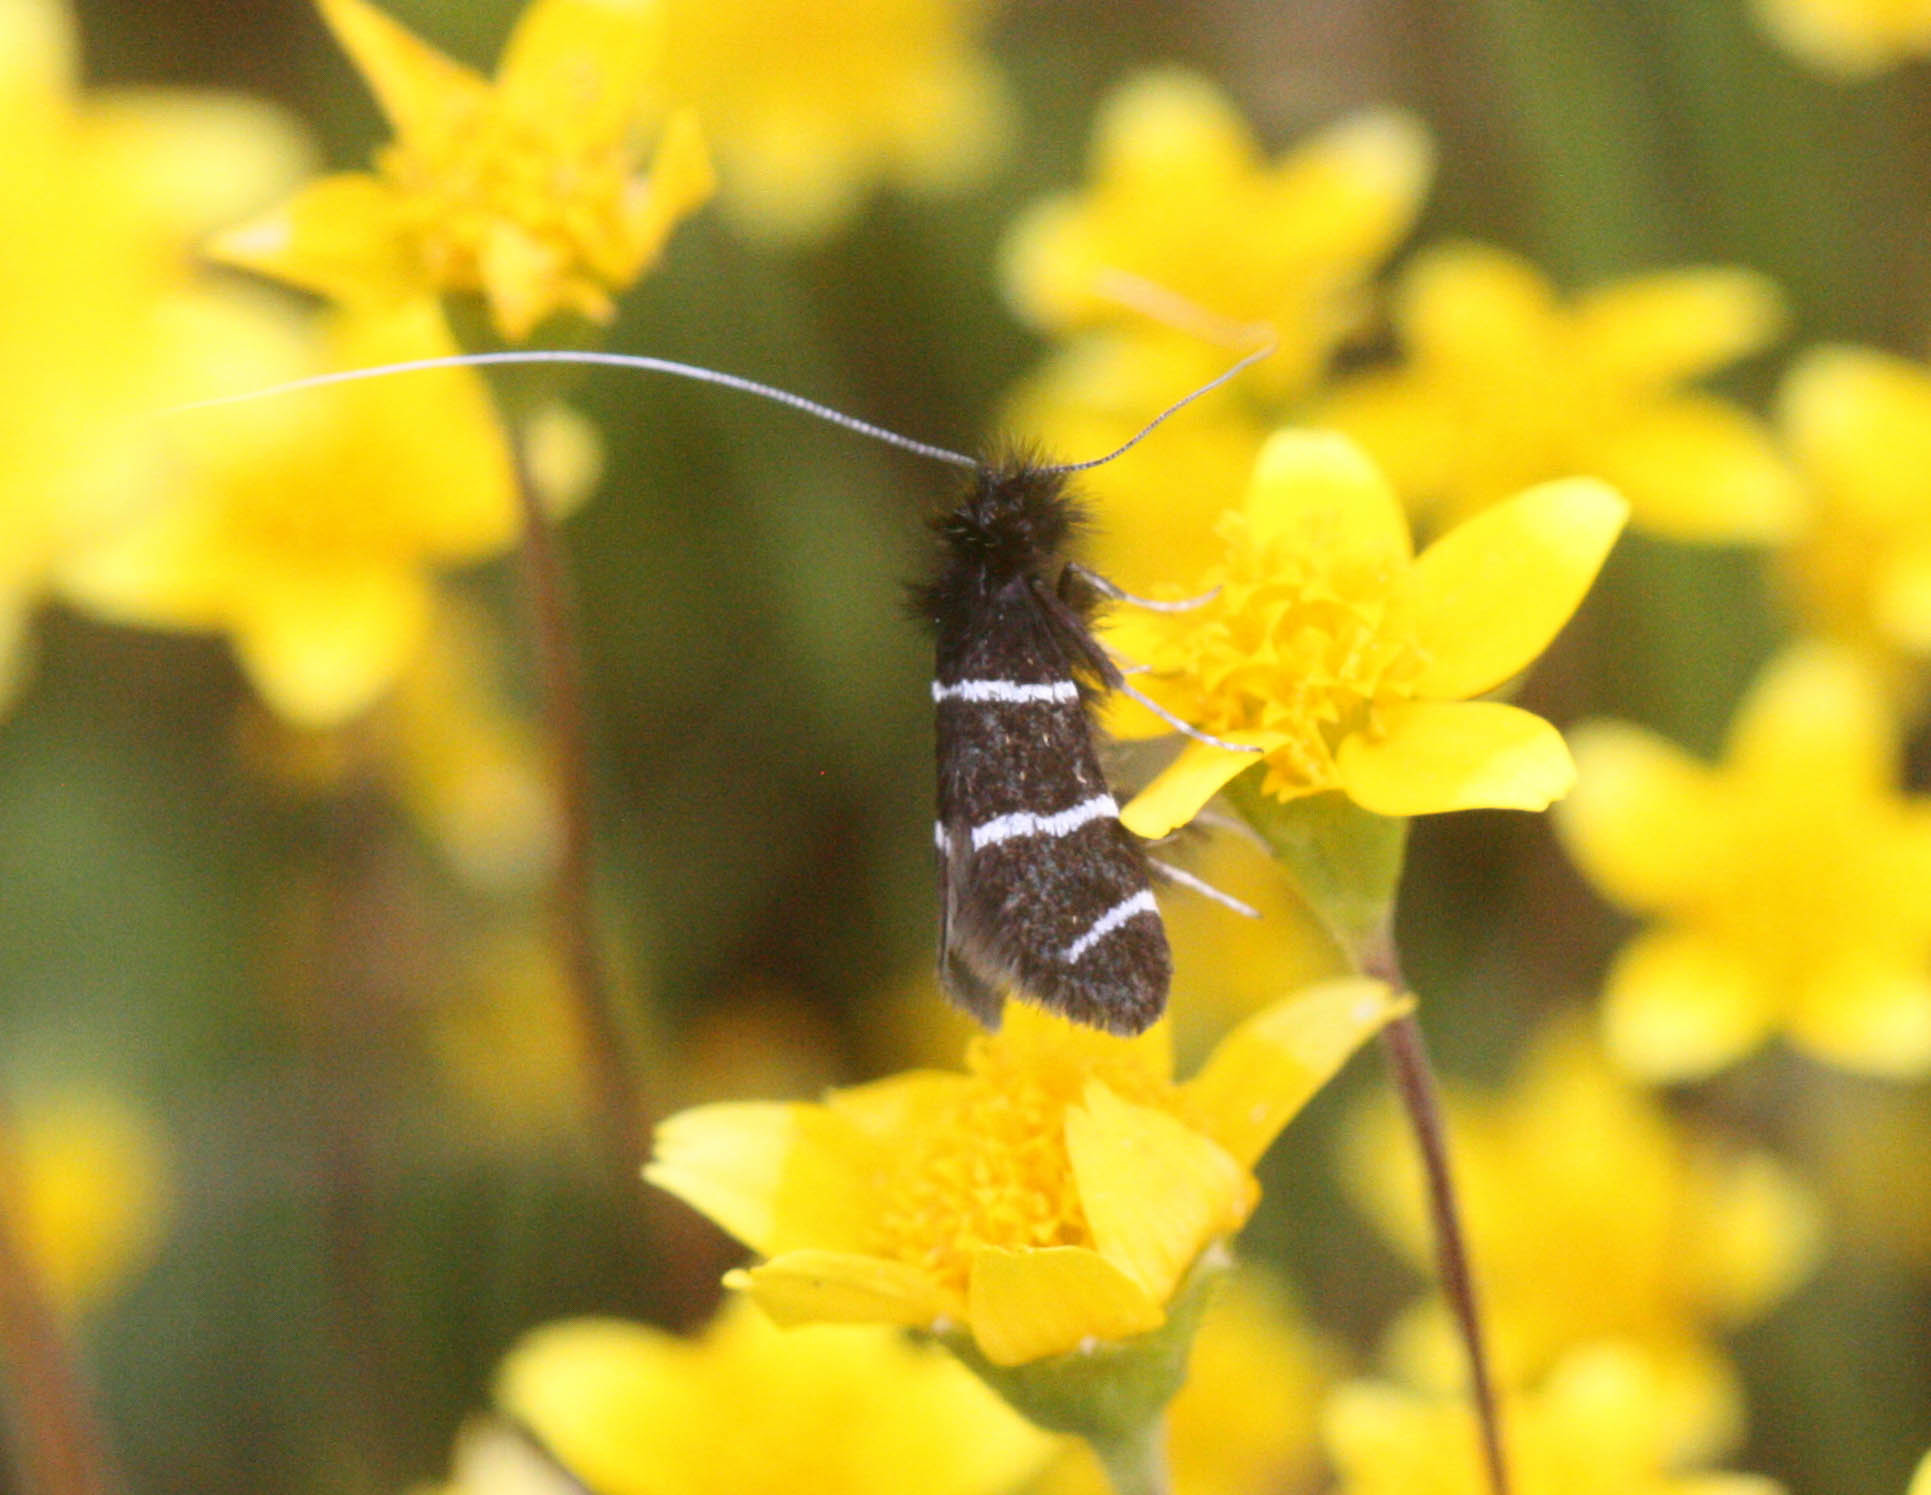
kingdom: Animalia
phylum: Arthropoda
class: Insecta
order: Lepidoptera
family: Adelidae
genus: Adela
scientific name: Adela trigrapha
